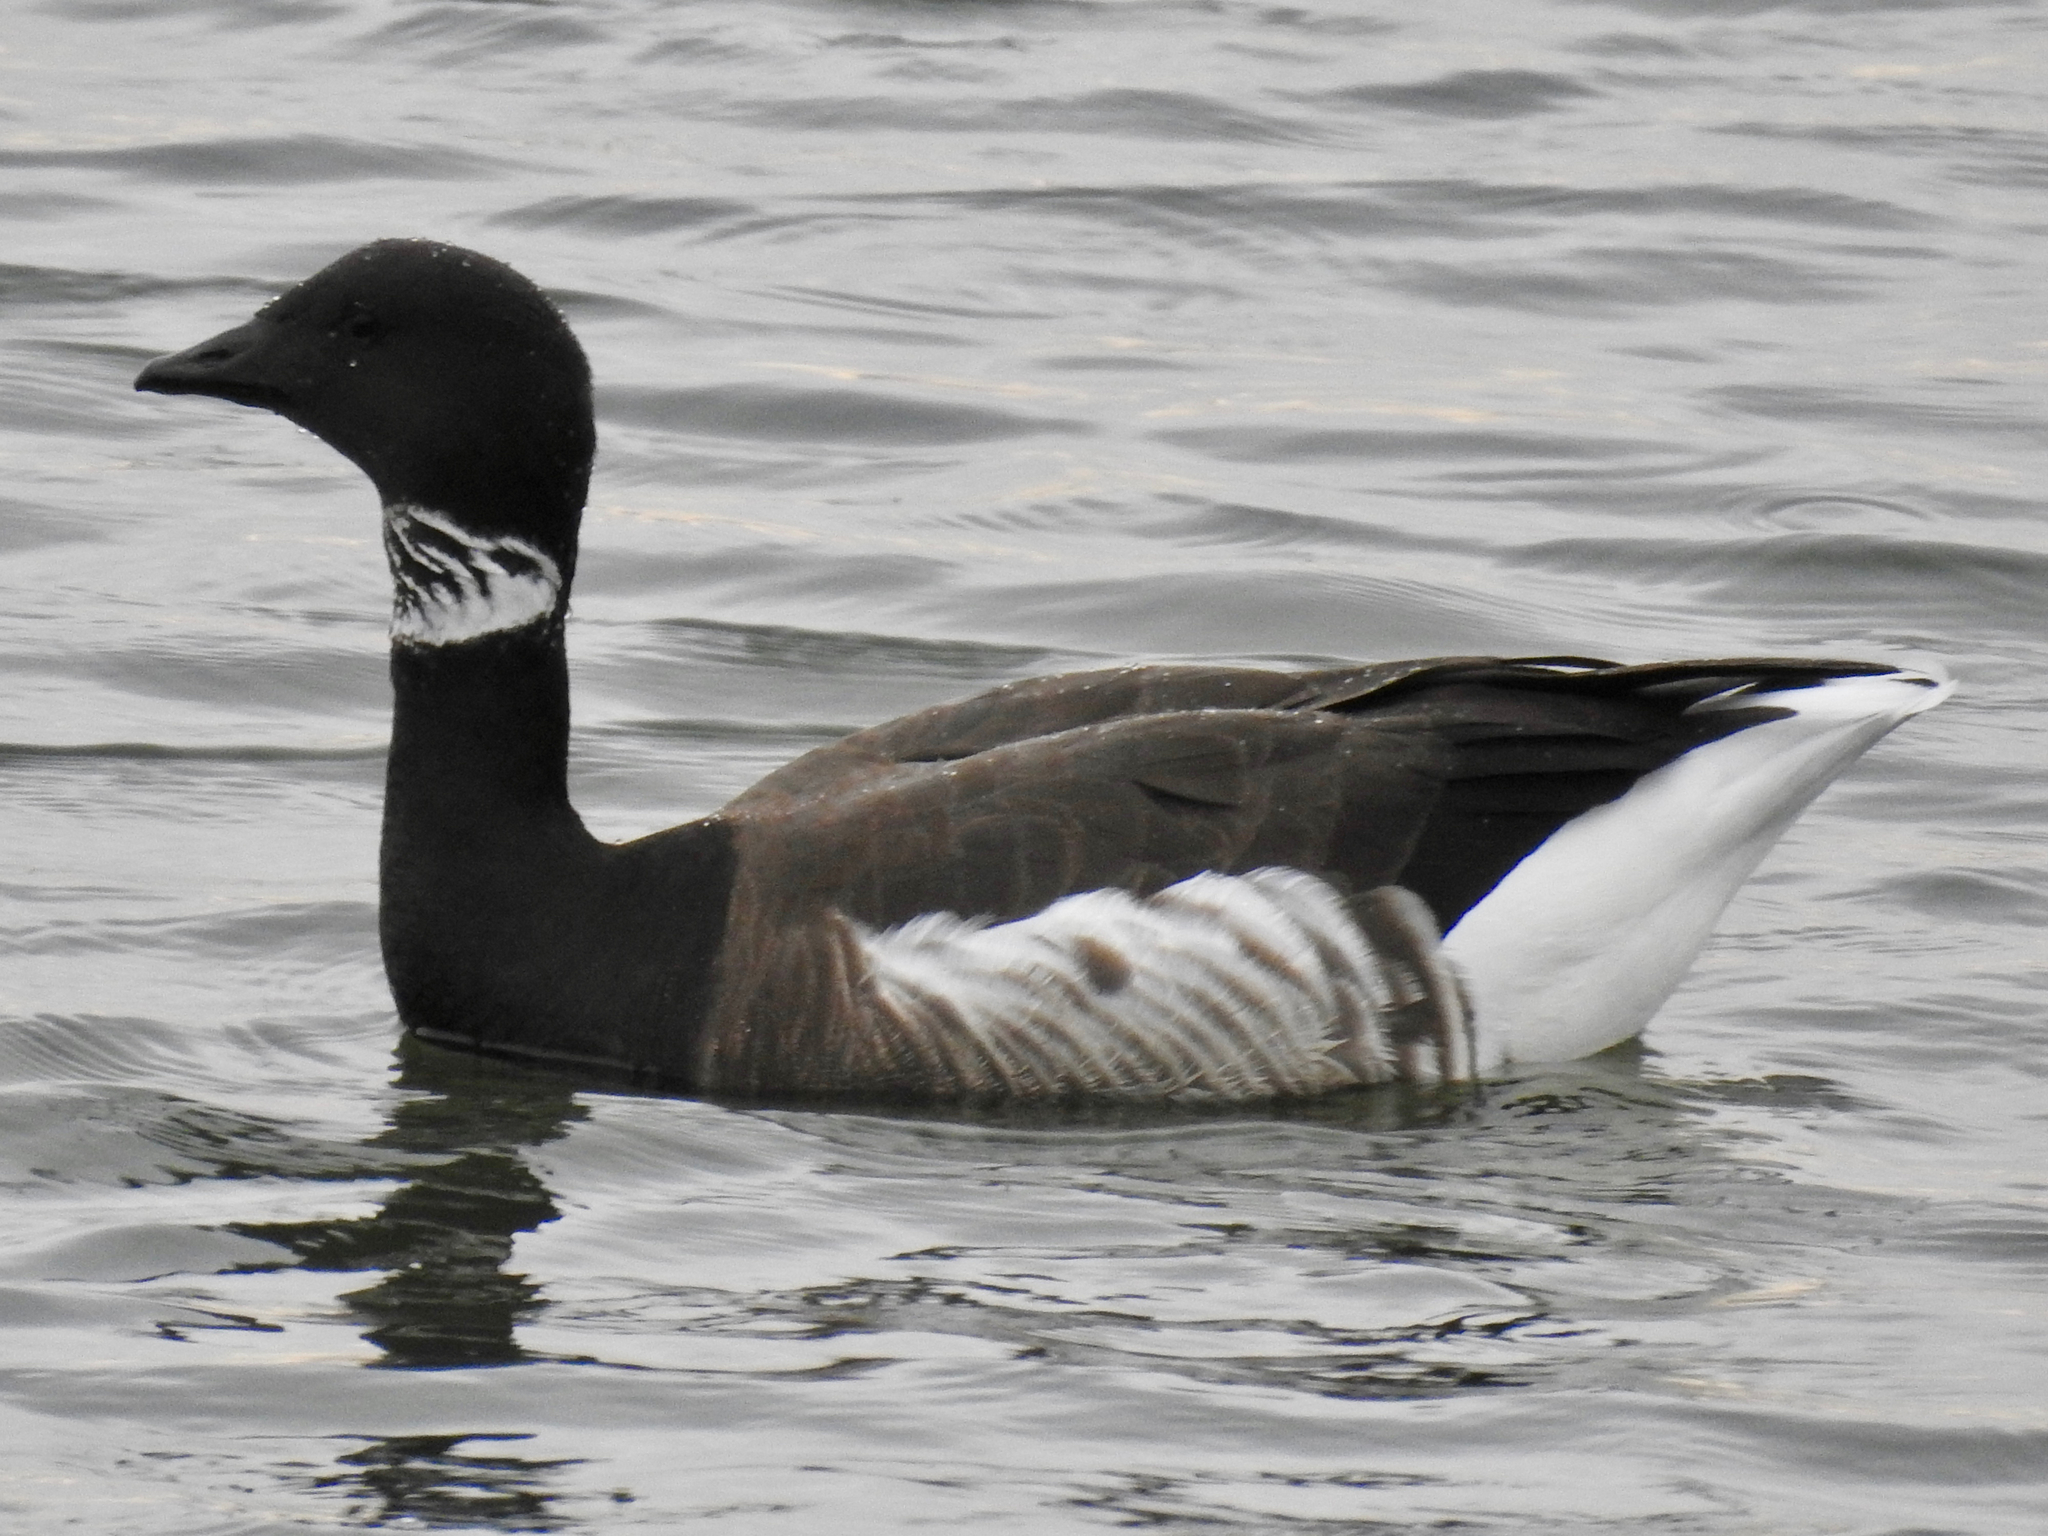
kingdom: Animalia
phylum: Chordata
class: Aves
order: Anseriformes
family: Anatidae
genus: Branta
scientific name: Branta bernicla
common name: Brant goose
